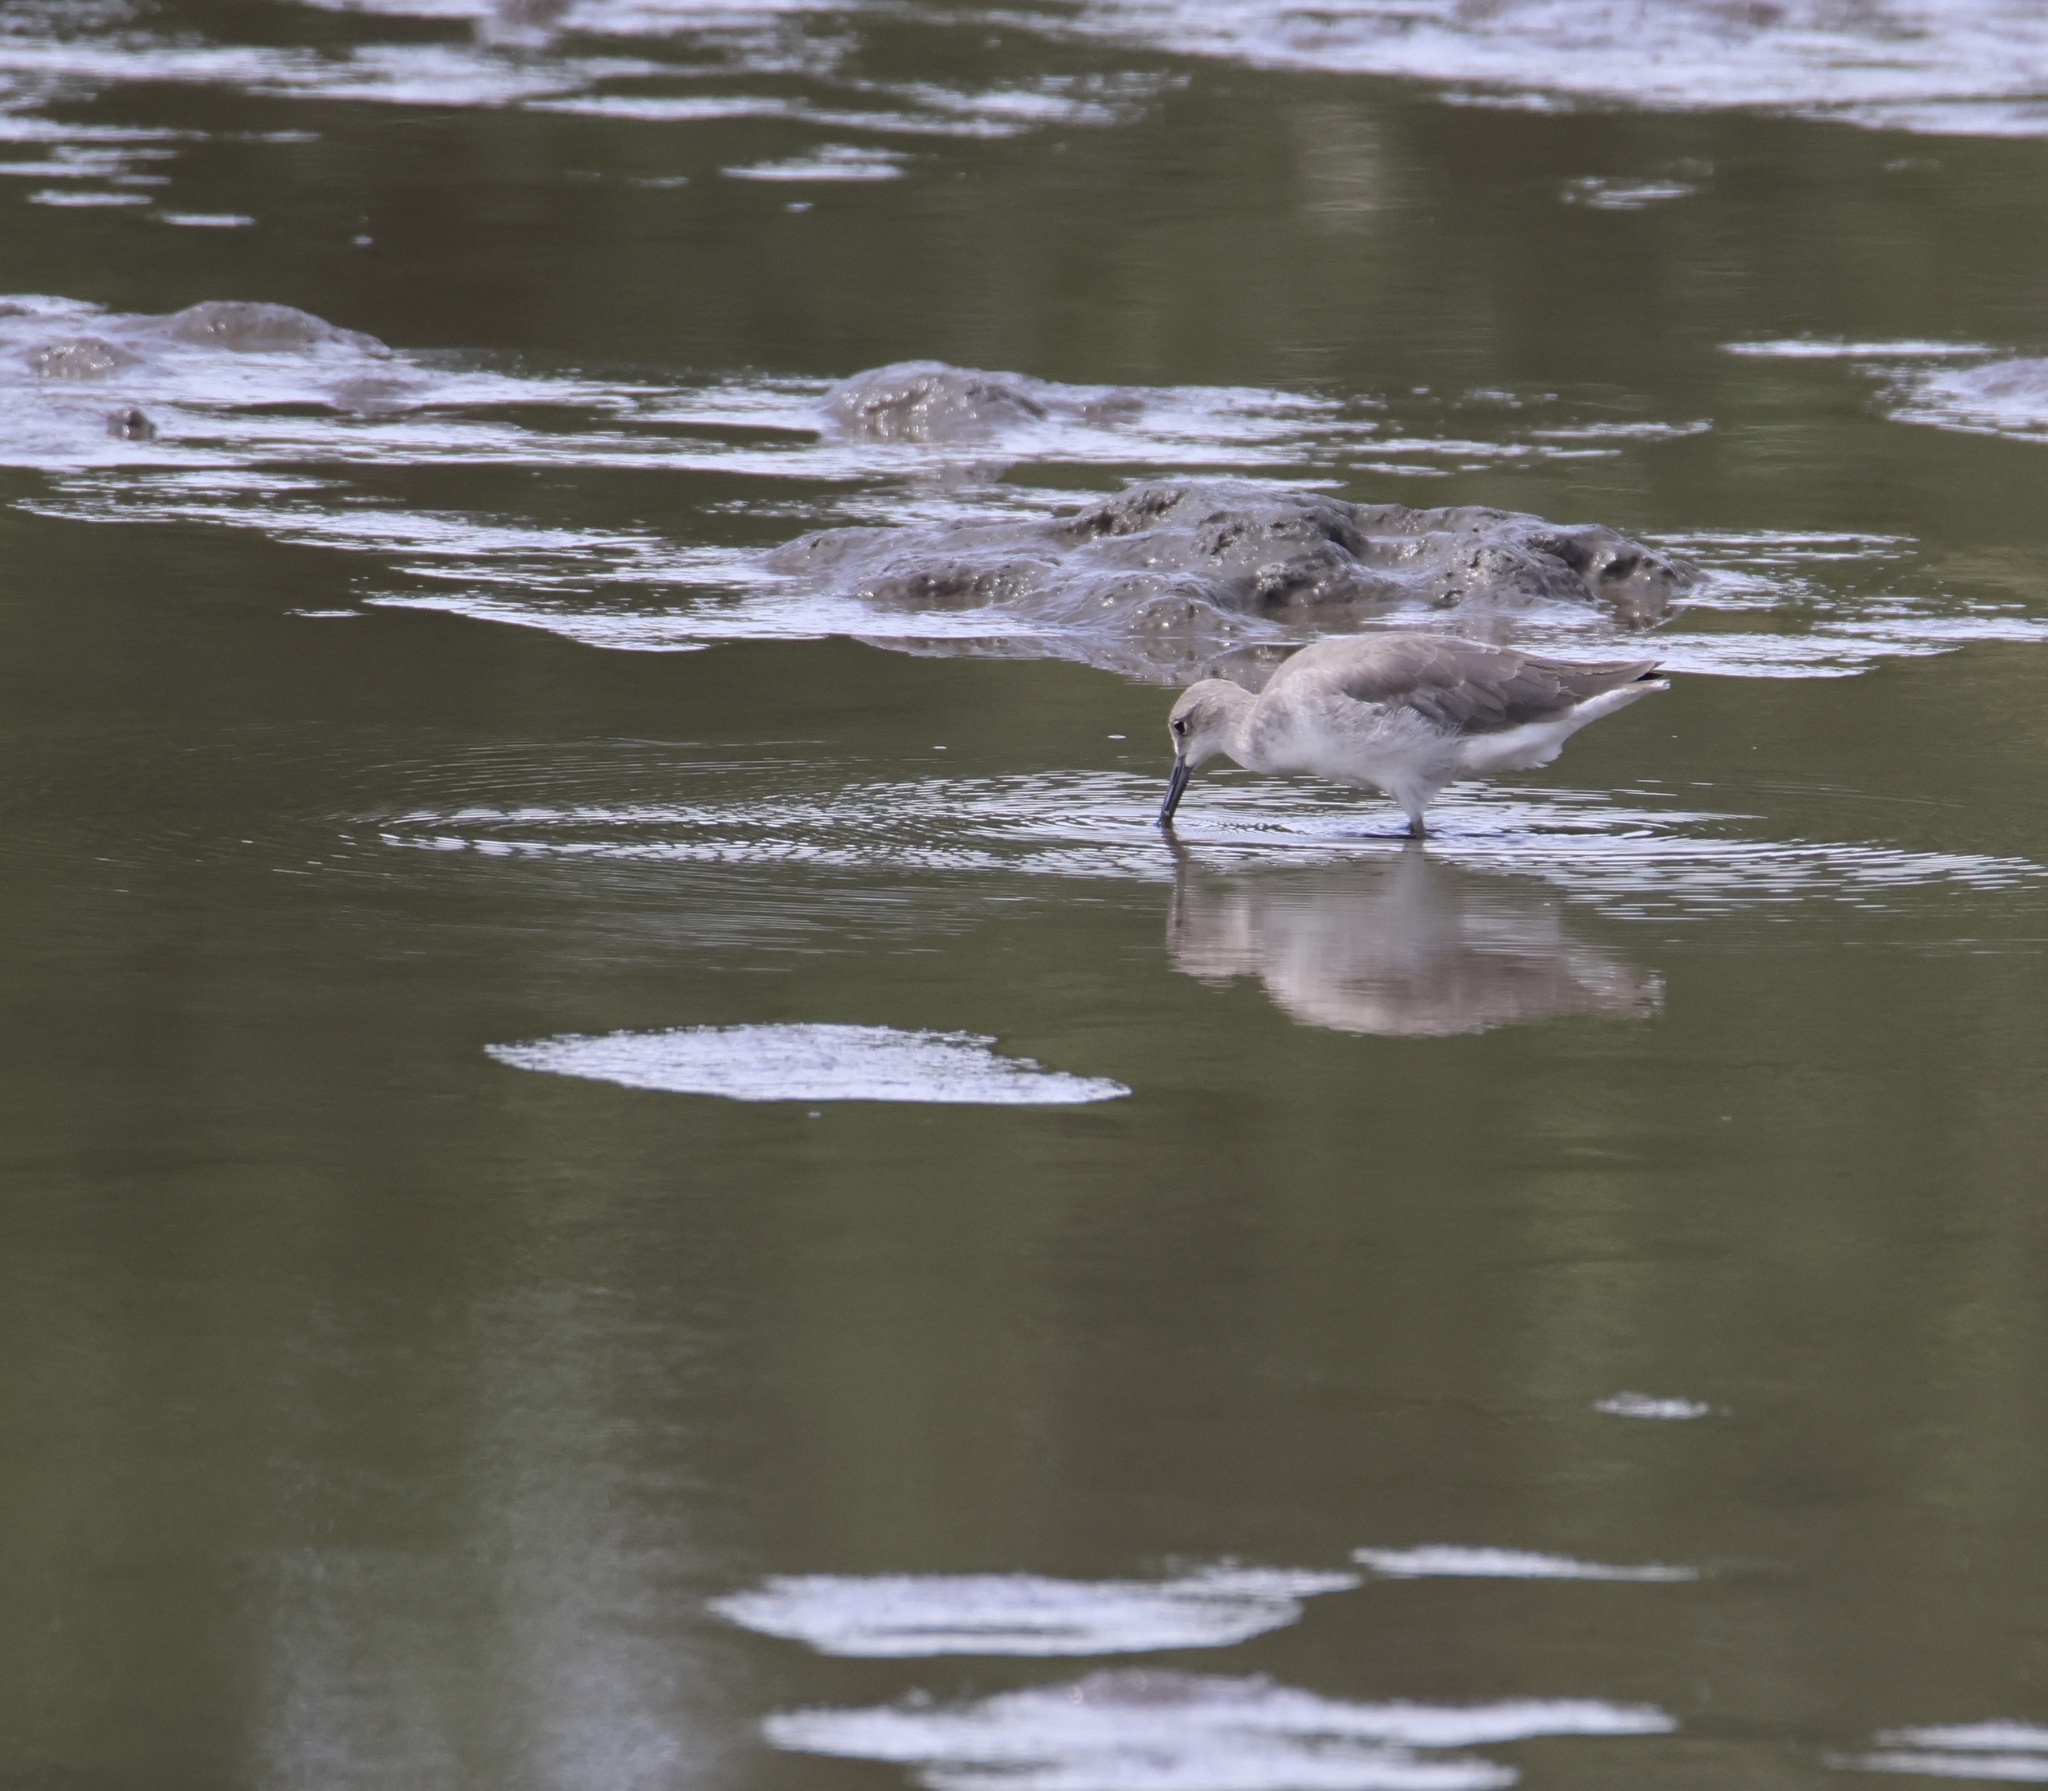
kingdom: Animalia
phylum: Chordata
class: Aves
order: Charadriiformes
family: Scolopacidae
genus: Tringa
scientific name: Tringa semipalmata
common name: Willet
